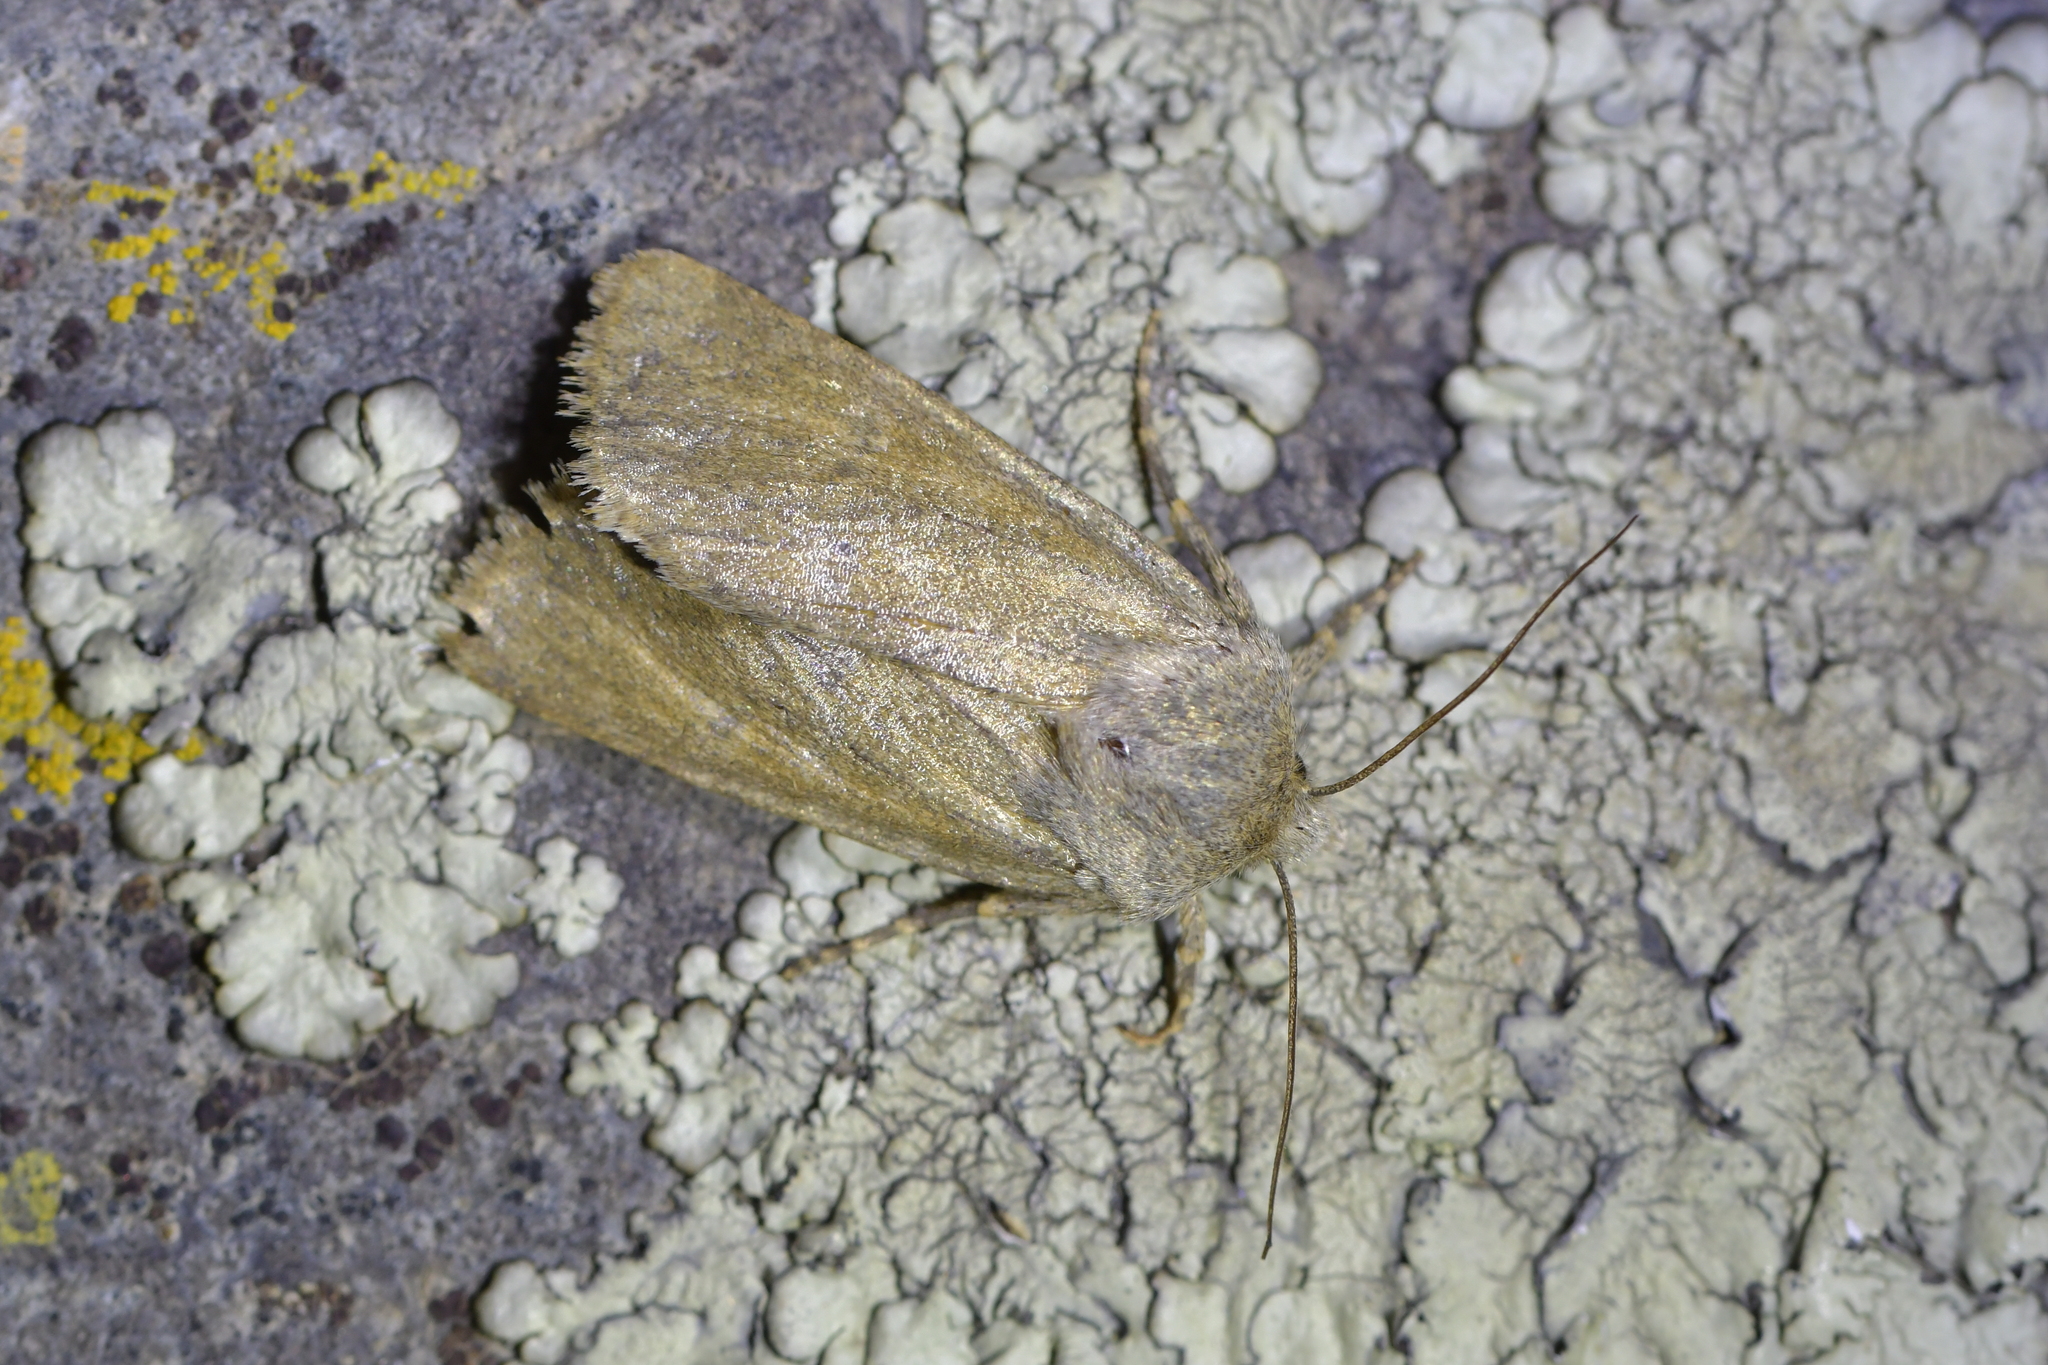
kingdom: Animalia
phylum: Arthropoda
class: Insecta
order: Lepidoptera
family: Noctuidae
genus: Physetica
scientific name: Physetica caerulea
